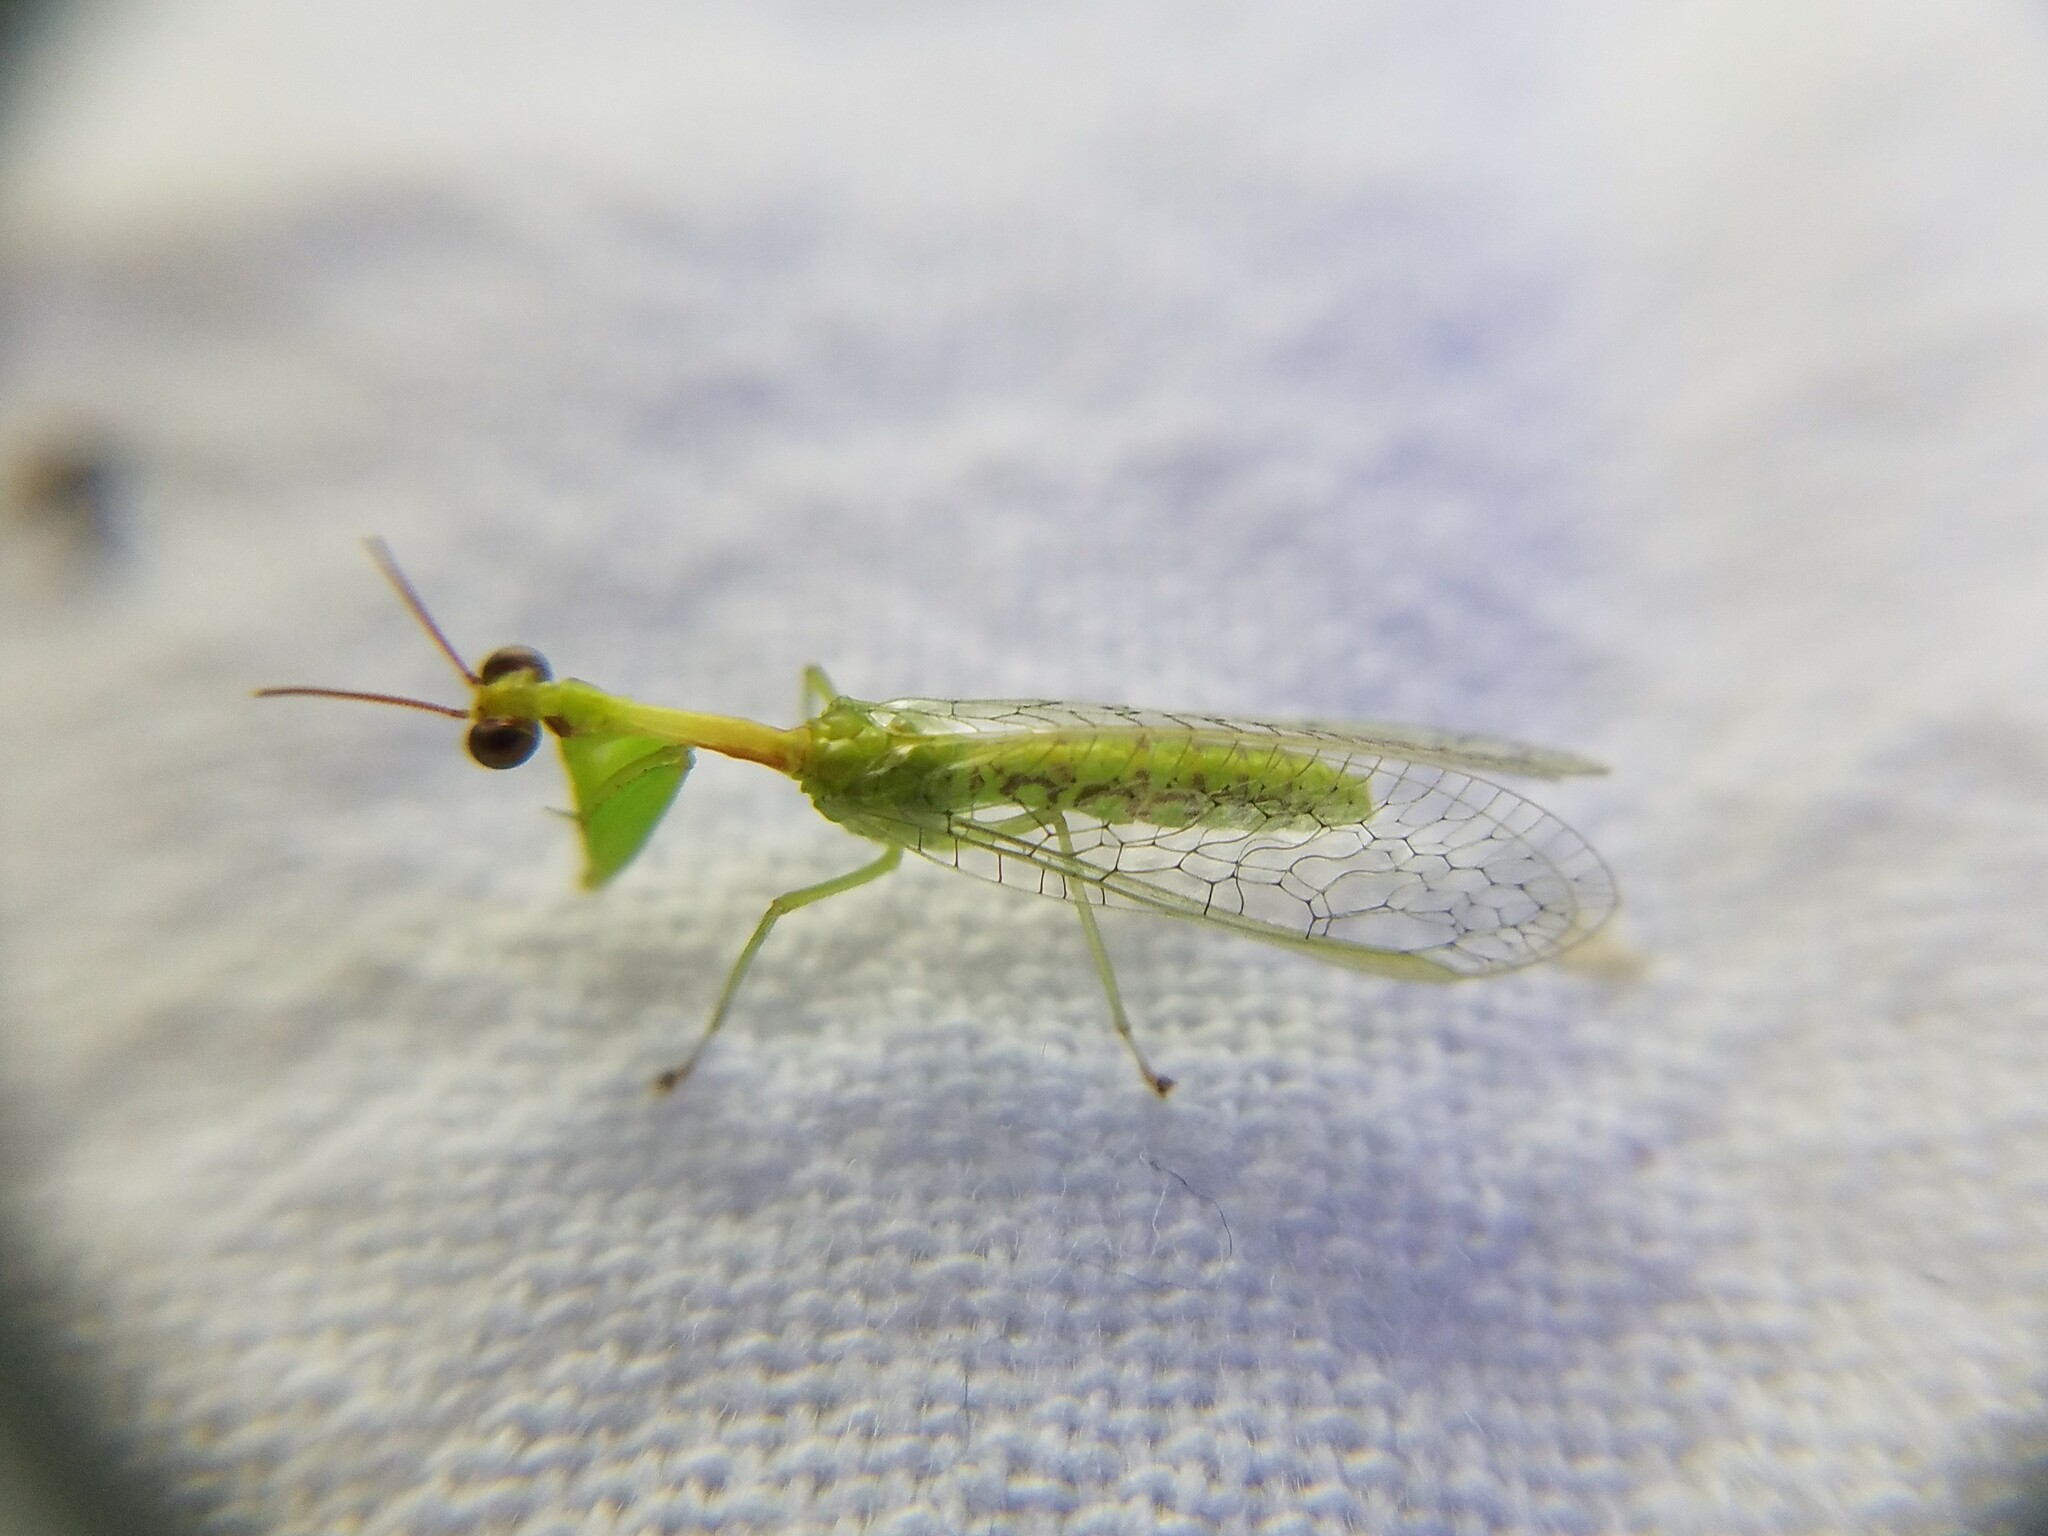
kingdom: Animalia
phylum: Arthropoda
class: Insecta
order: Neuroptera
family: Mantispidae
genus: Zeugomantispa
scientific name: Zeugomantispa minuta
